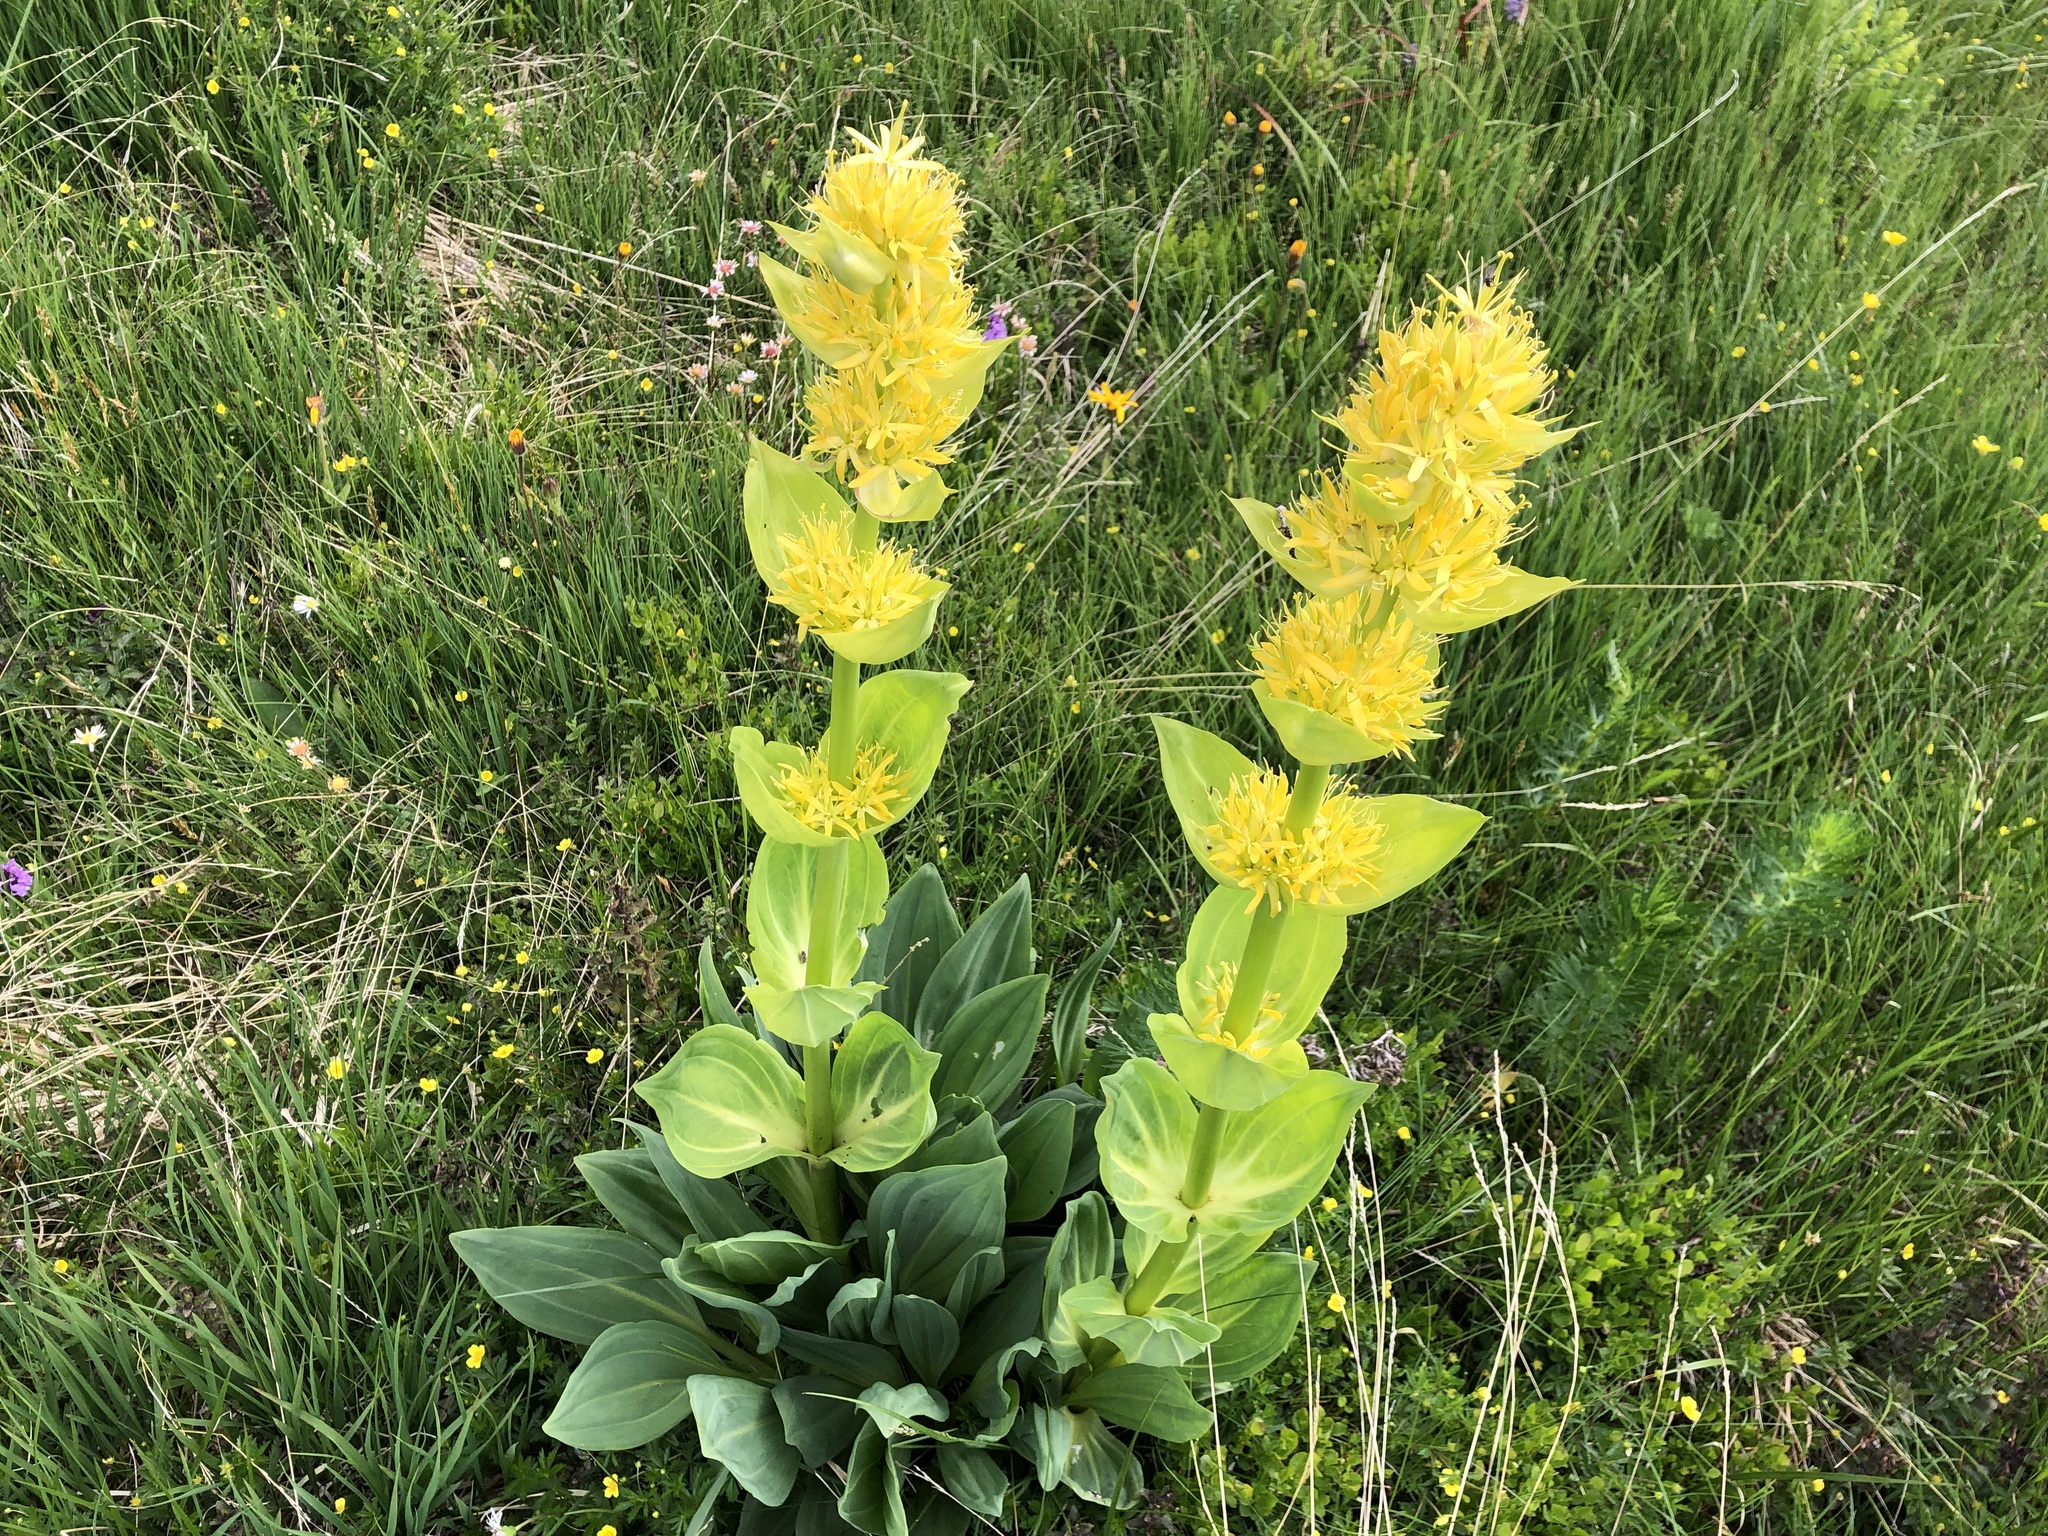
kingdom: Plantae
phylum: Tracheophyta
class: Magnoliopsida
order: Gentianales
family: Gentianaceae
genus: Gentiana
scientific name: Gentiana lutea
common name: Great yellow gentian
